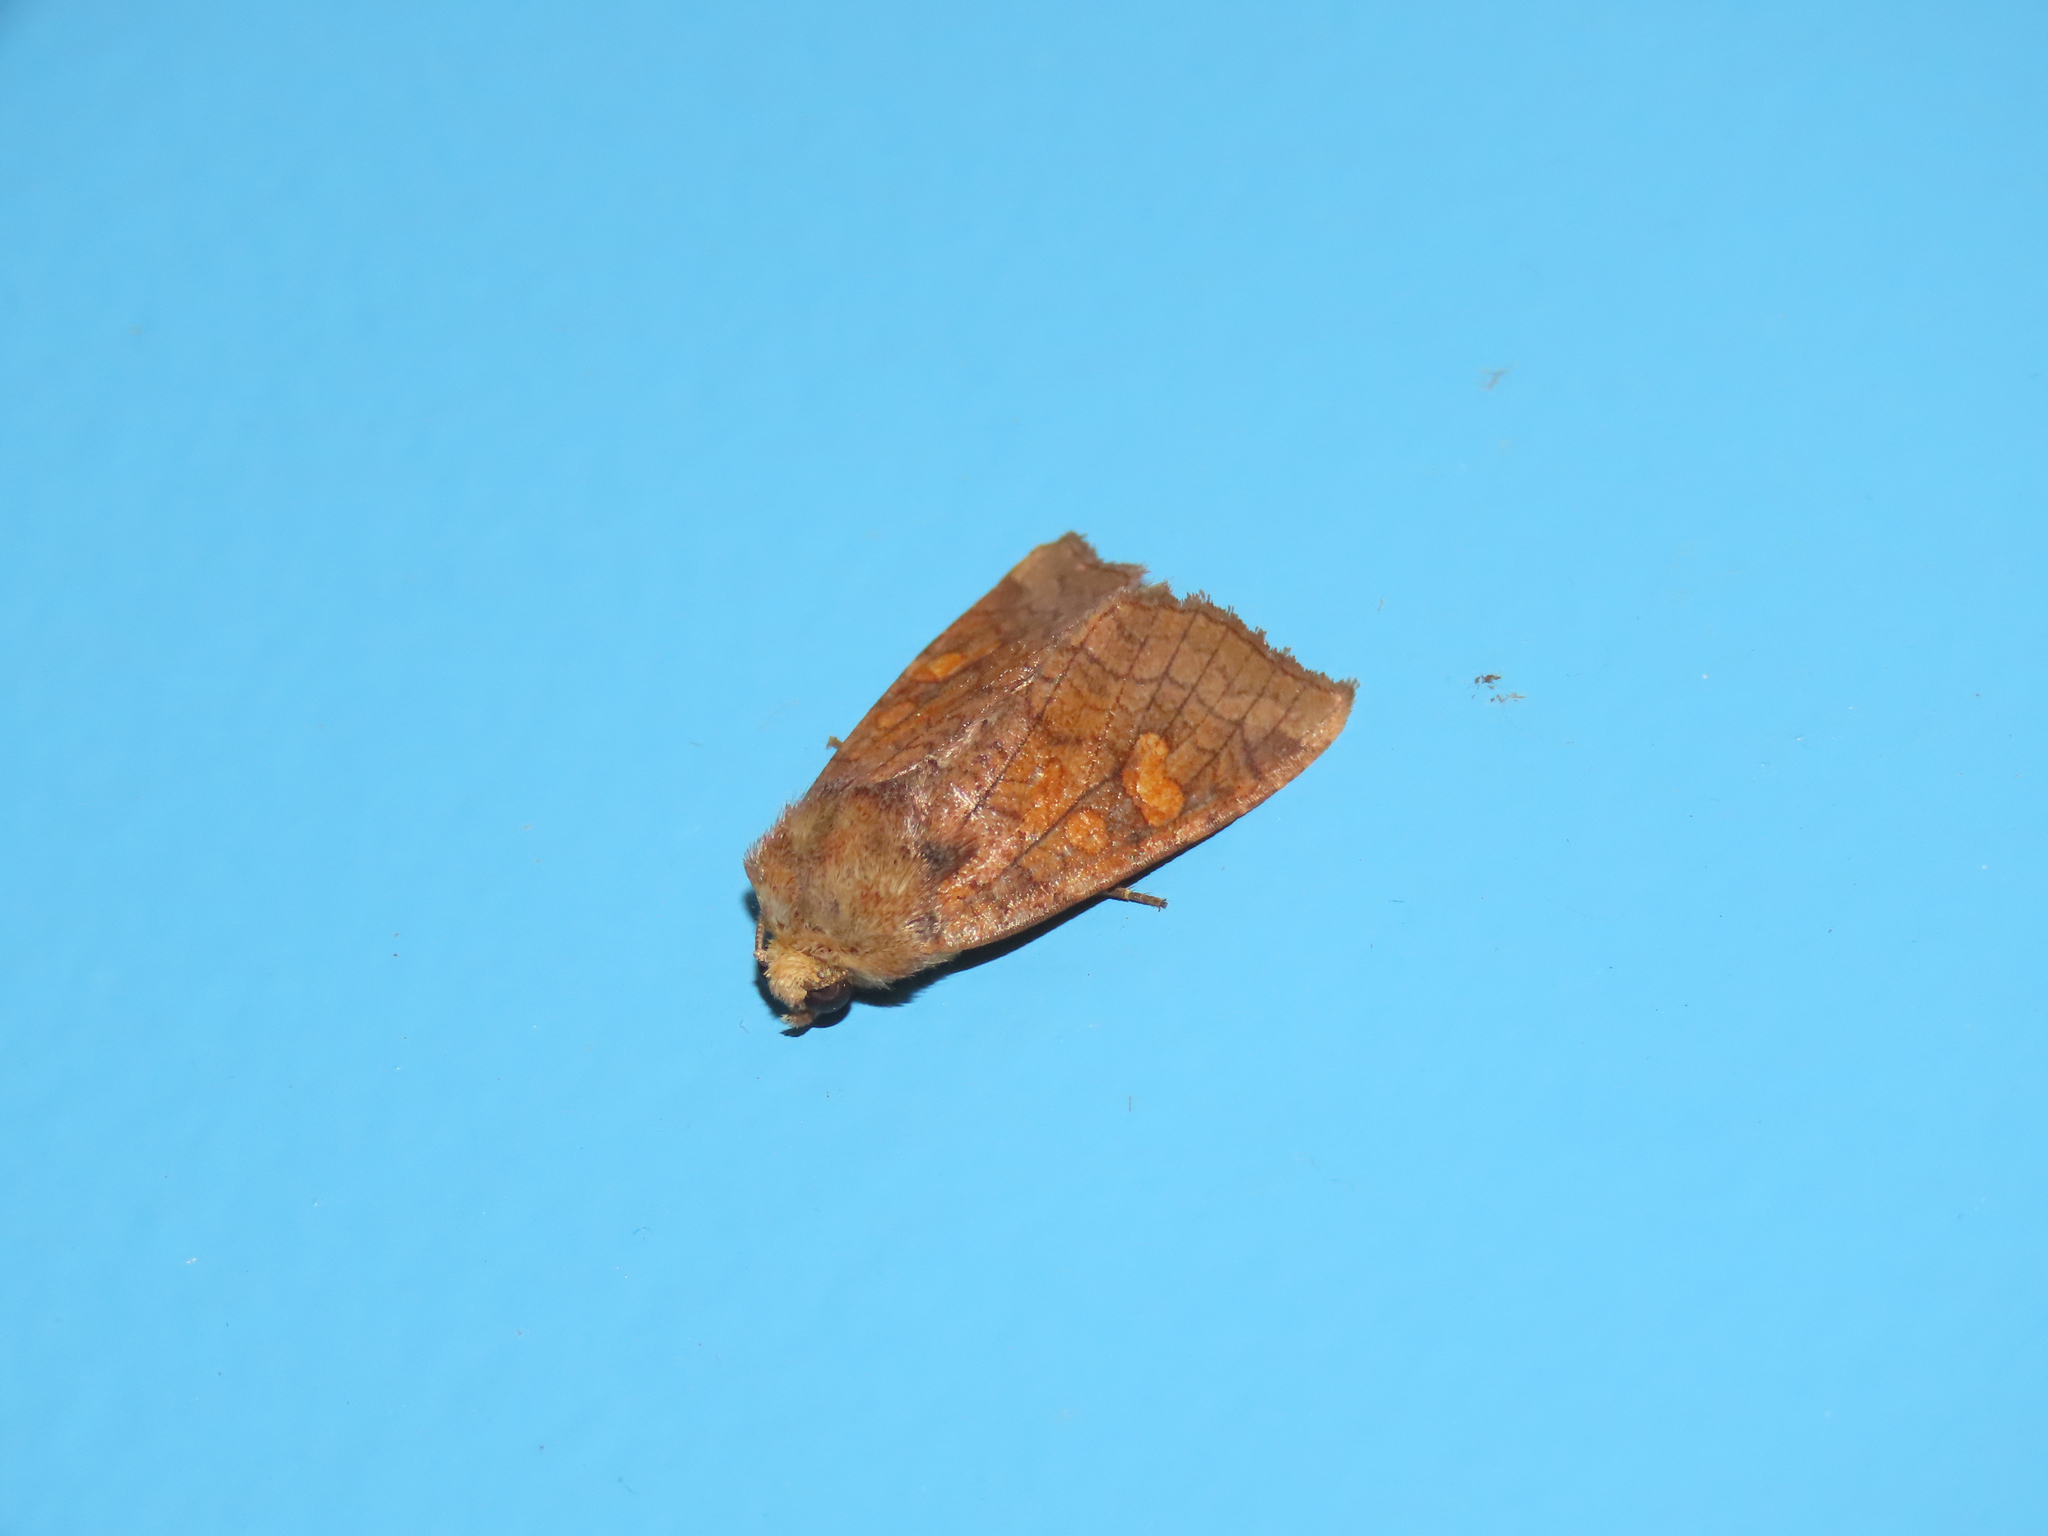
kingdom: Animalia
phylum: Arthropoda
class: Insecta
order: Lepidoptera
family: Noctuidae
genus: Amphipoea
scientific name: Amphipoea americana
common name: American ear moth
